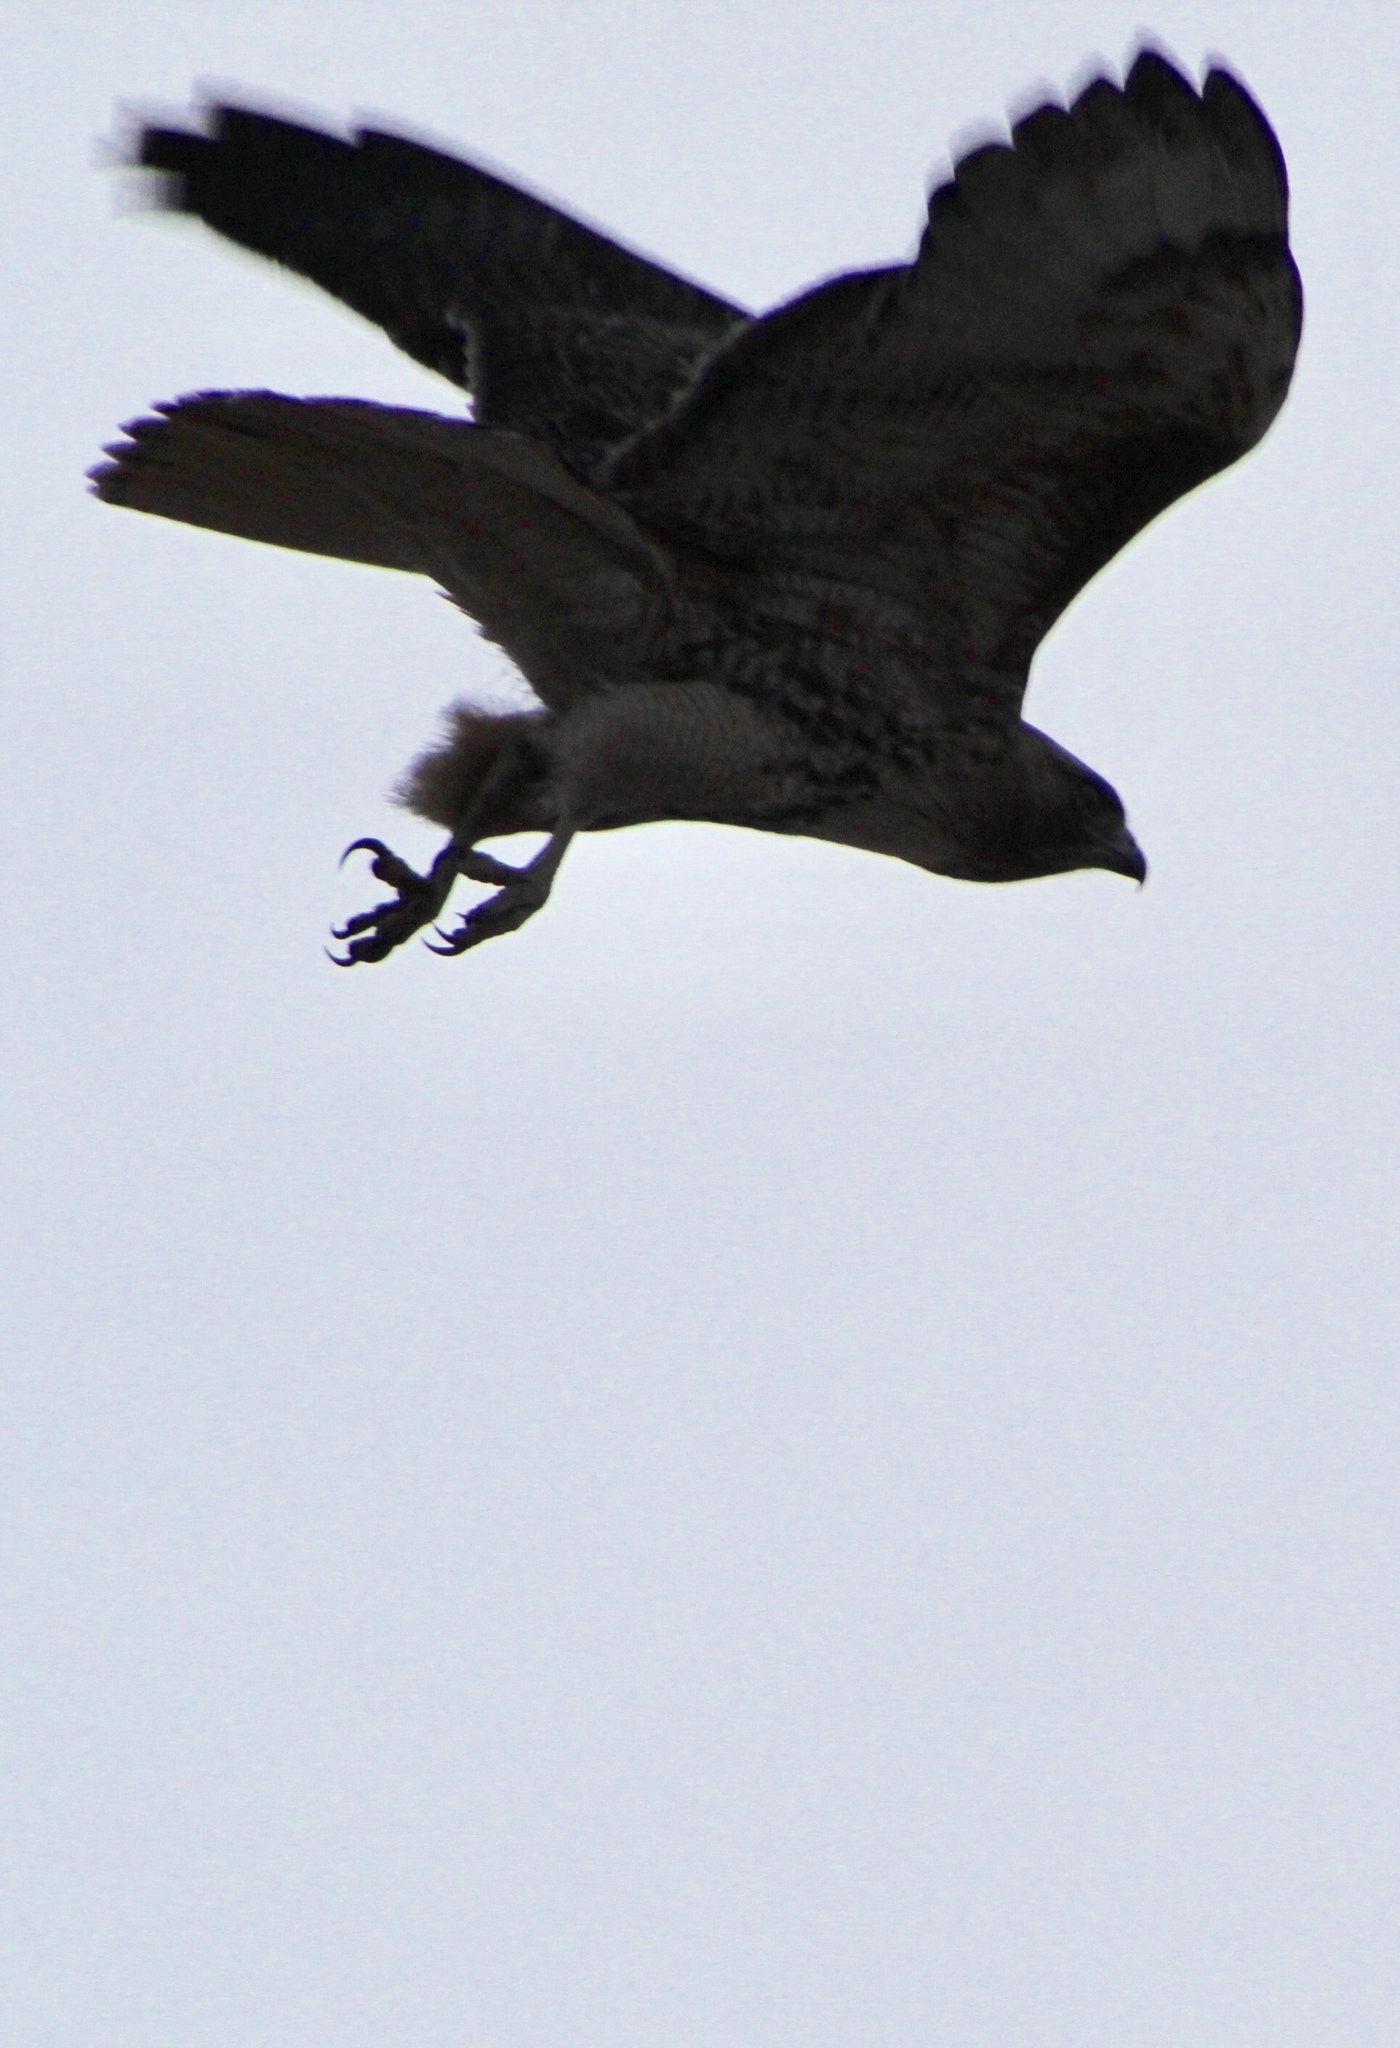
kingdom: Animalia
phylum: Chordata
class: Aves
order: Accipitriformes
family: Accipitridae
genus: Buteo
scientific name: Buteo jamaicensis
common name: Red-tailed hawk
